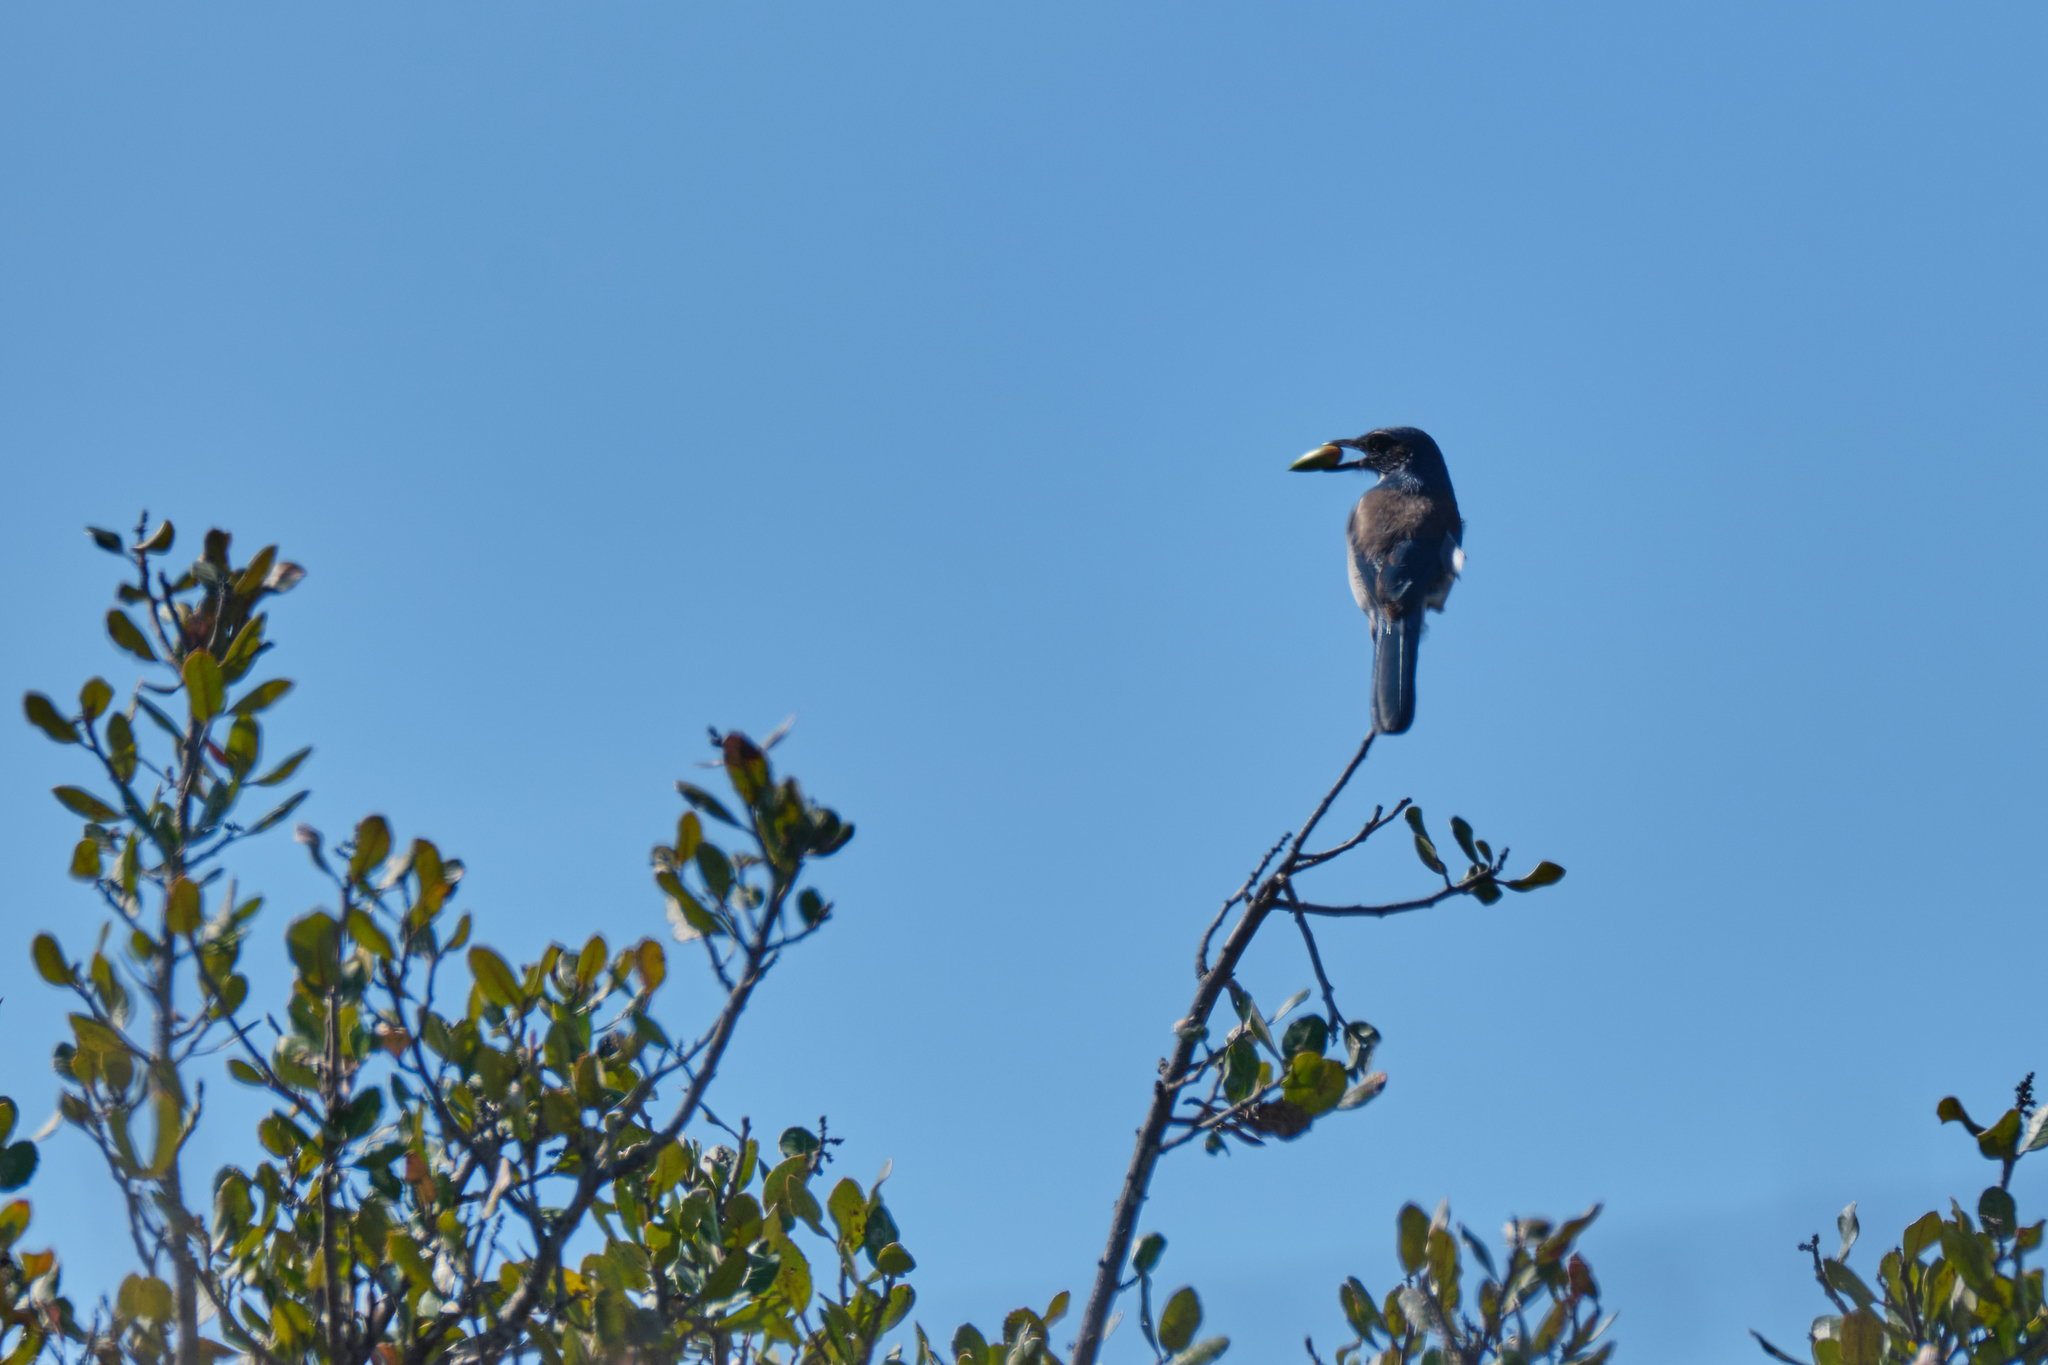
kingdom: Animalia
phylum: Chordata
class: Aves
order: Passeriformes
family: Corvidae
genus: Aphelocoma
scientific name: Aphelocoma californica
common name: California scrub-jay
